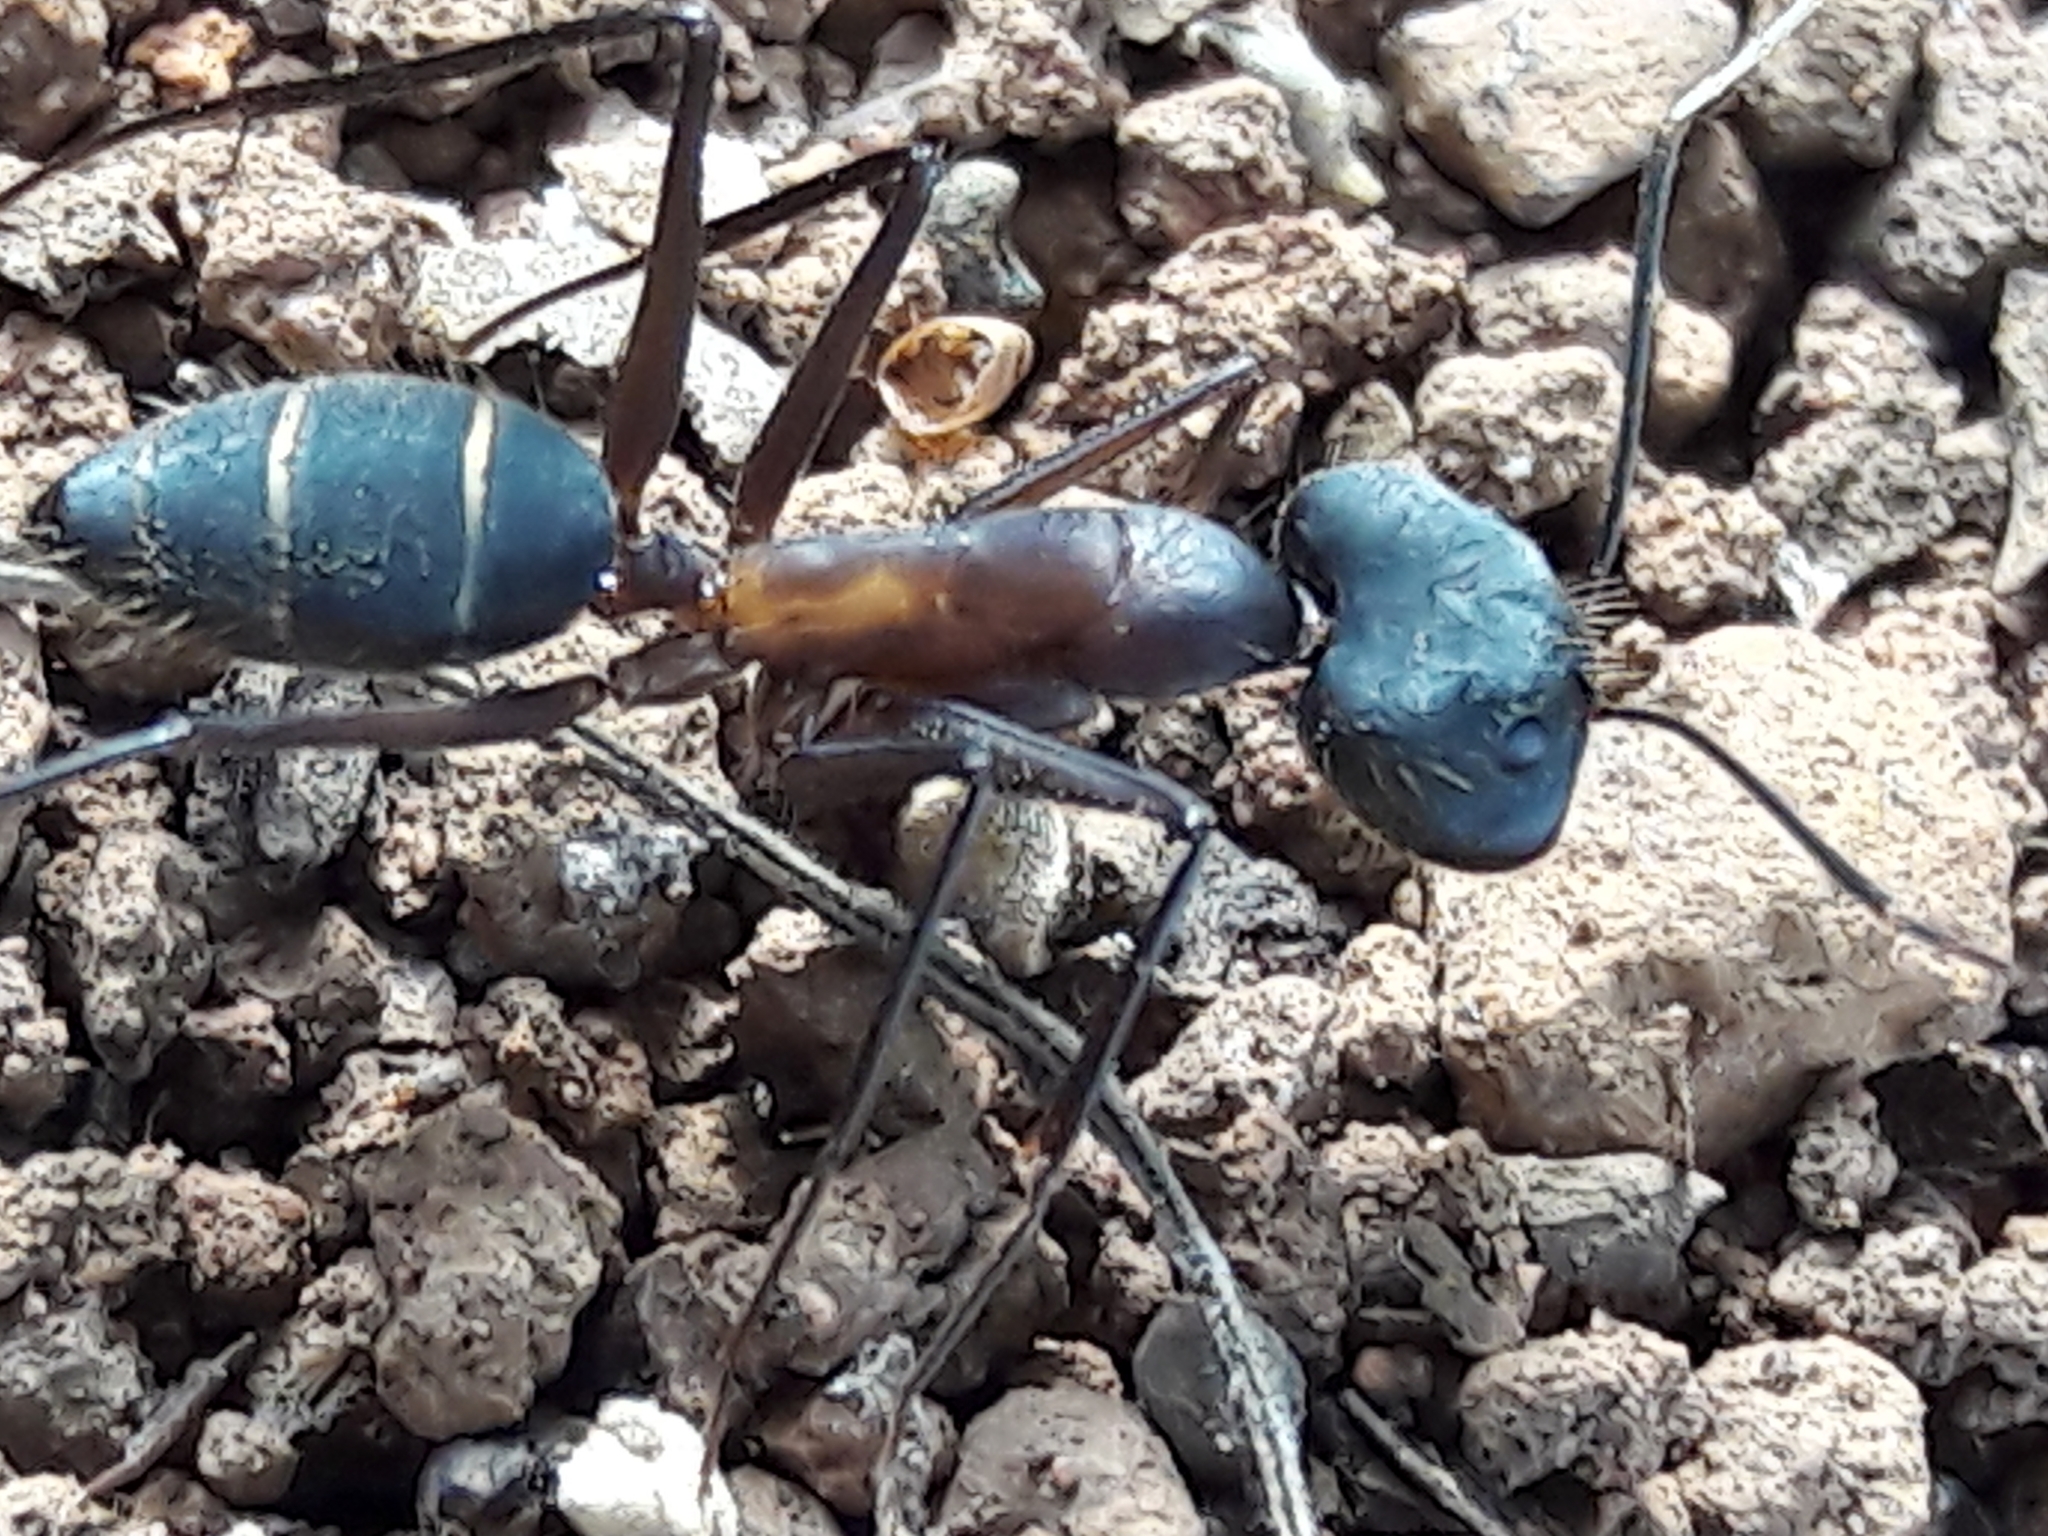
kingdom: Animalia
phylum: Arthropoda
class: Insecta
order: Hymenoptera
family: Formicidae
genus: Camponotus
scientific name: Camponotus lespesii
